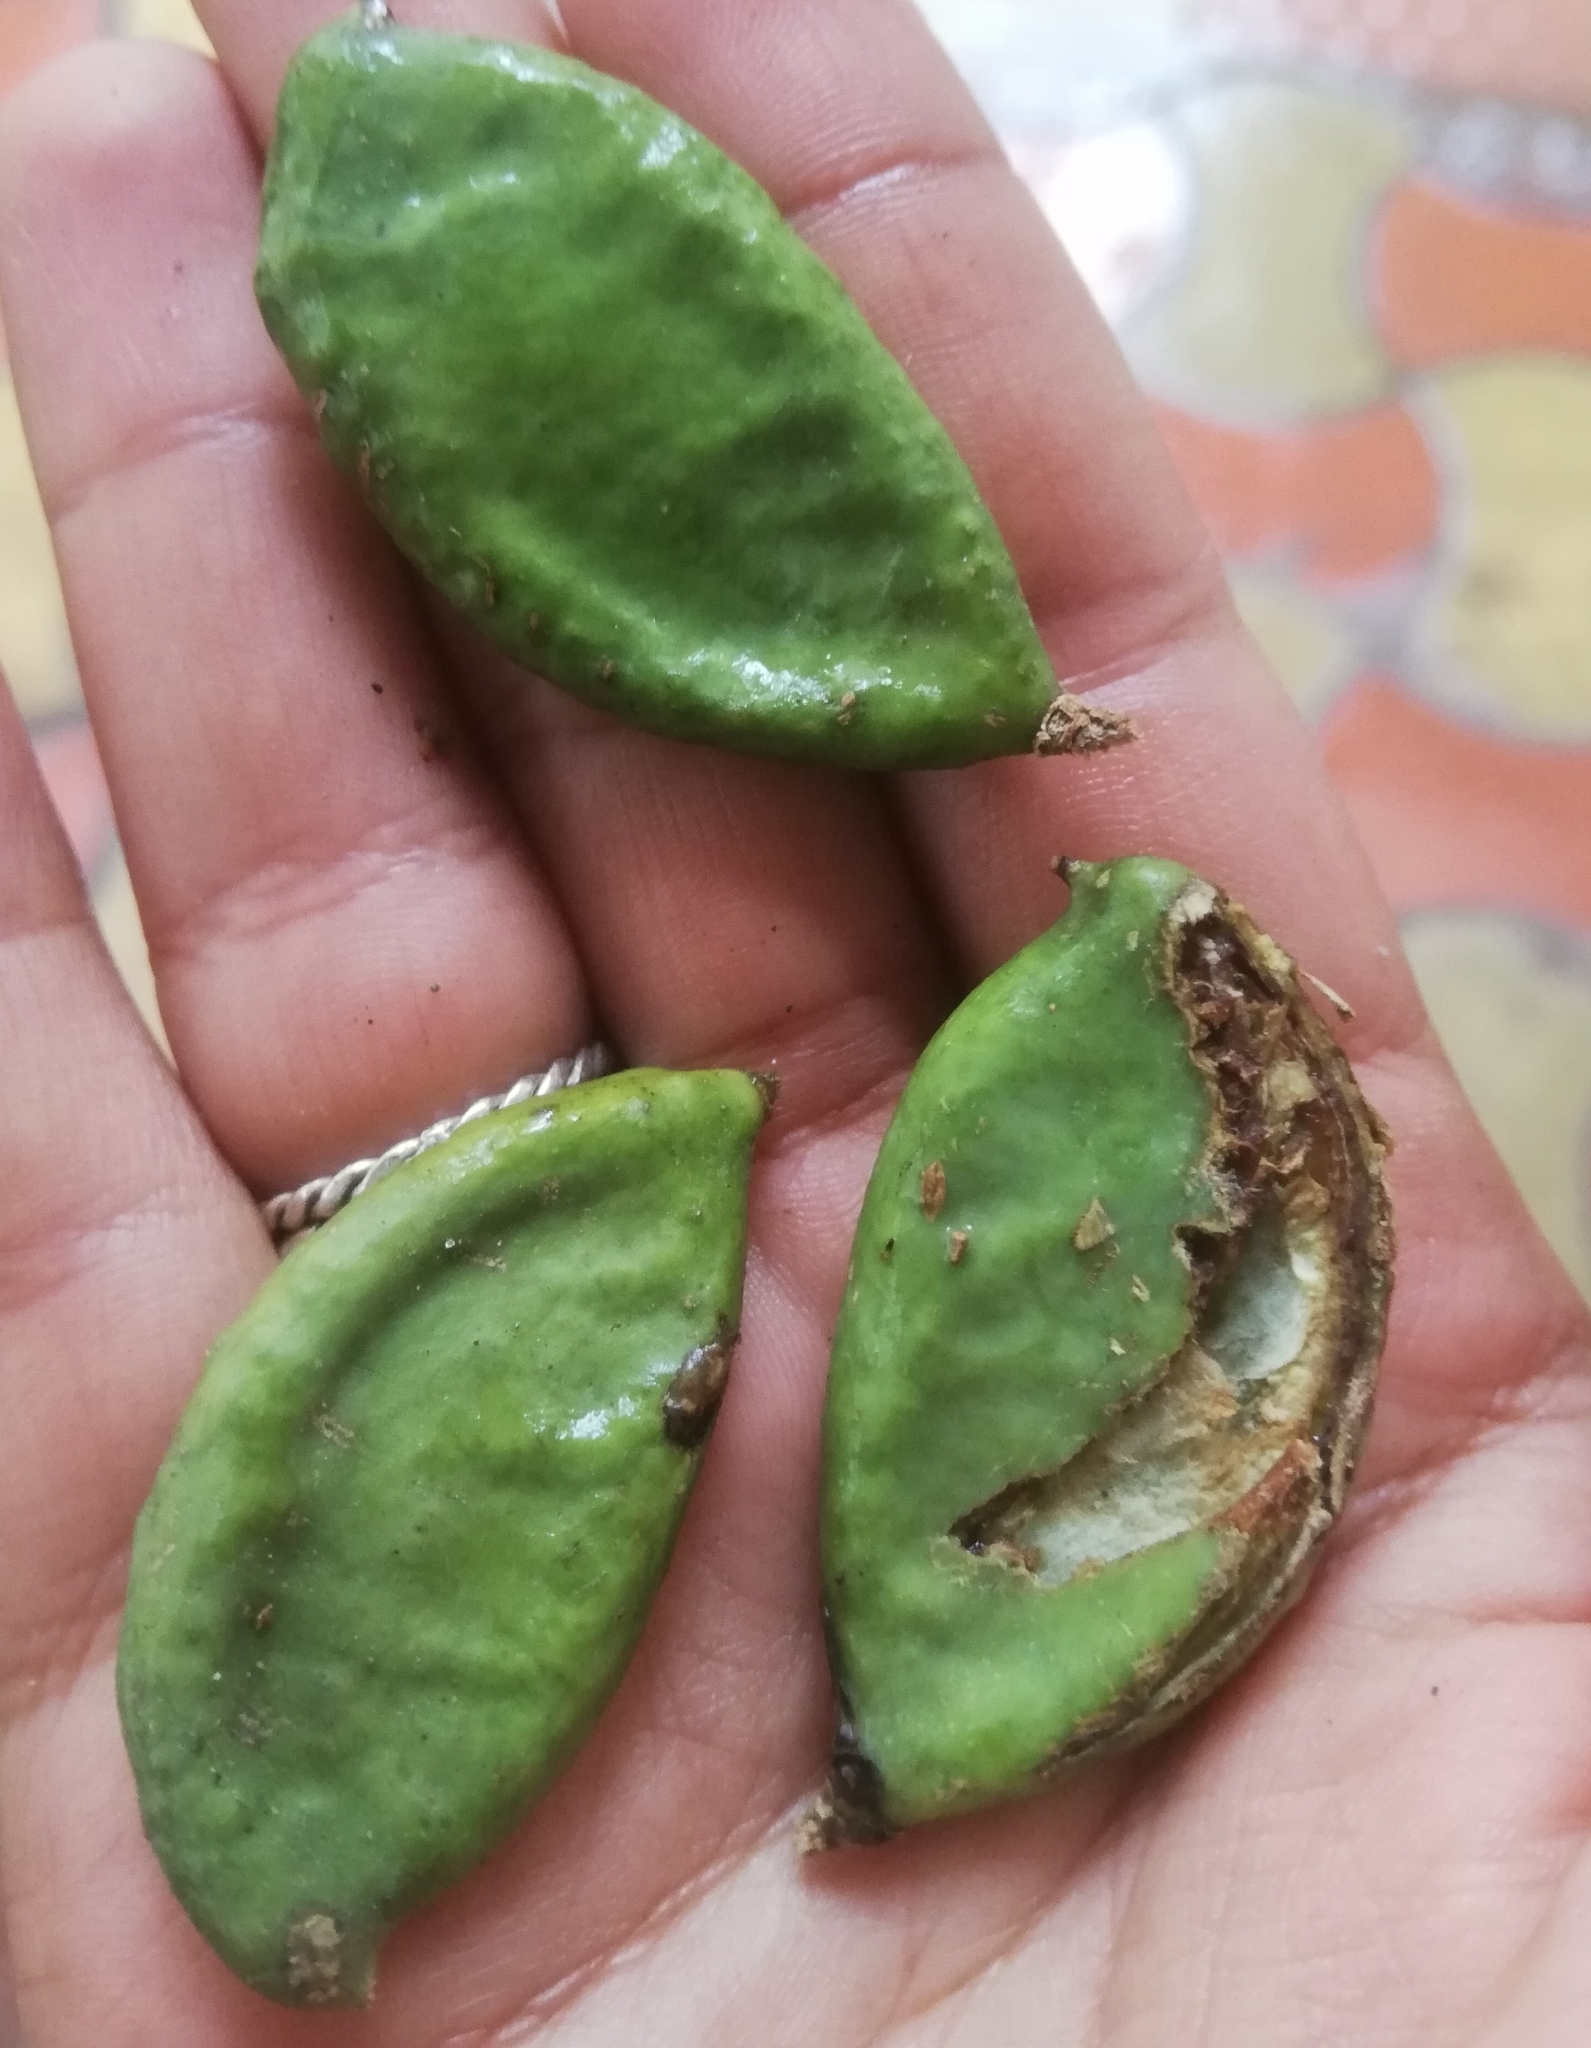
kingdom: Plantae
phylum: Tracheophyta
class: Magnoliopsida
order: Fabales
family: Fabaceae
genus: Pongamia
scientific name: Pongamia pinnata
